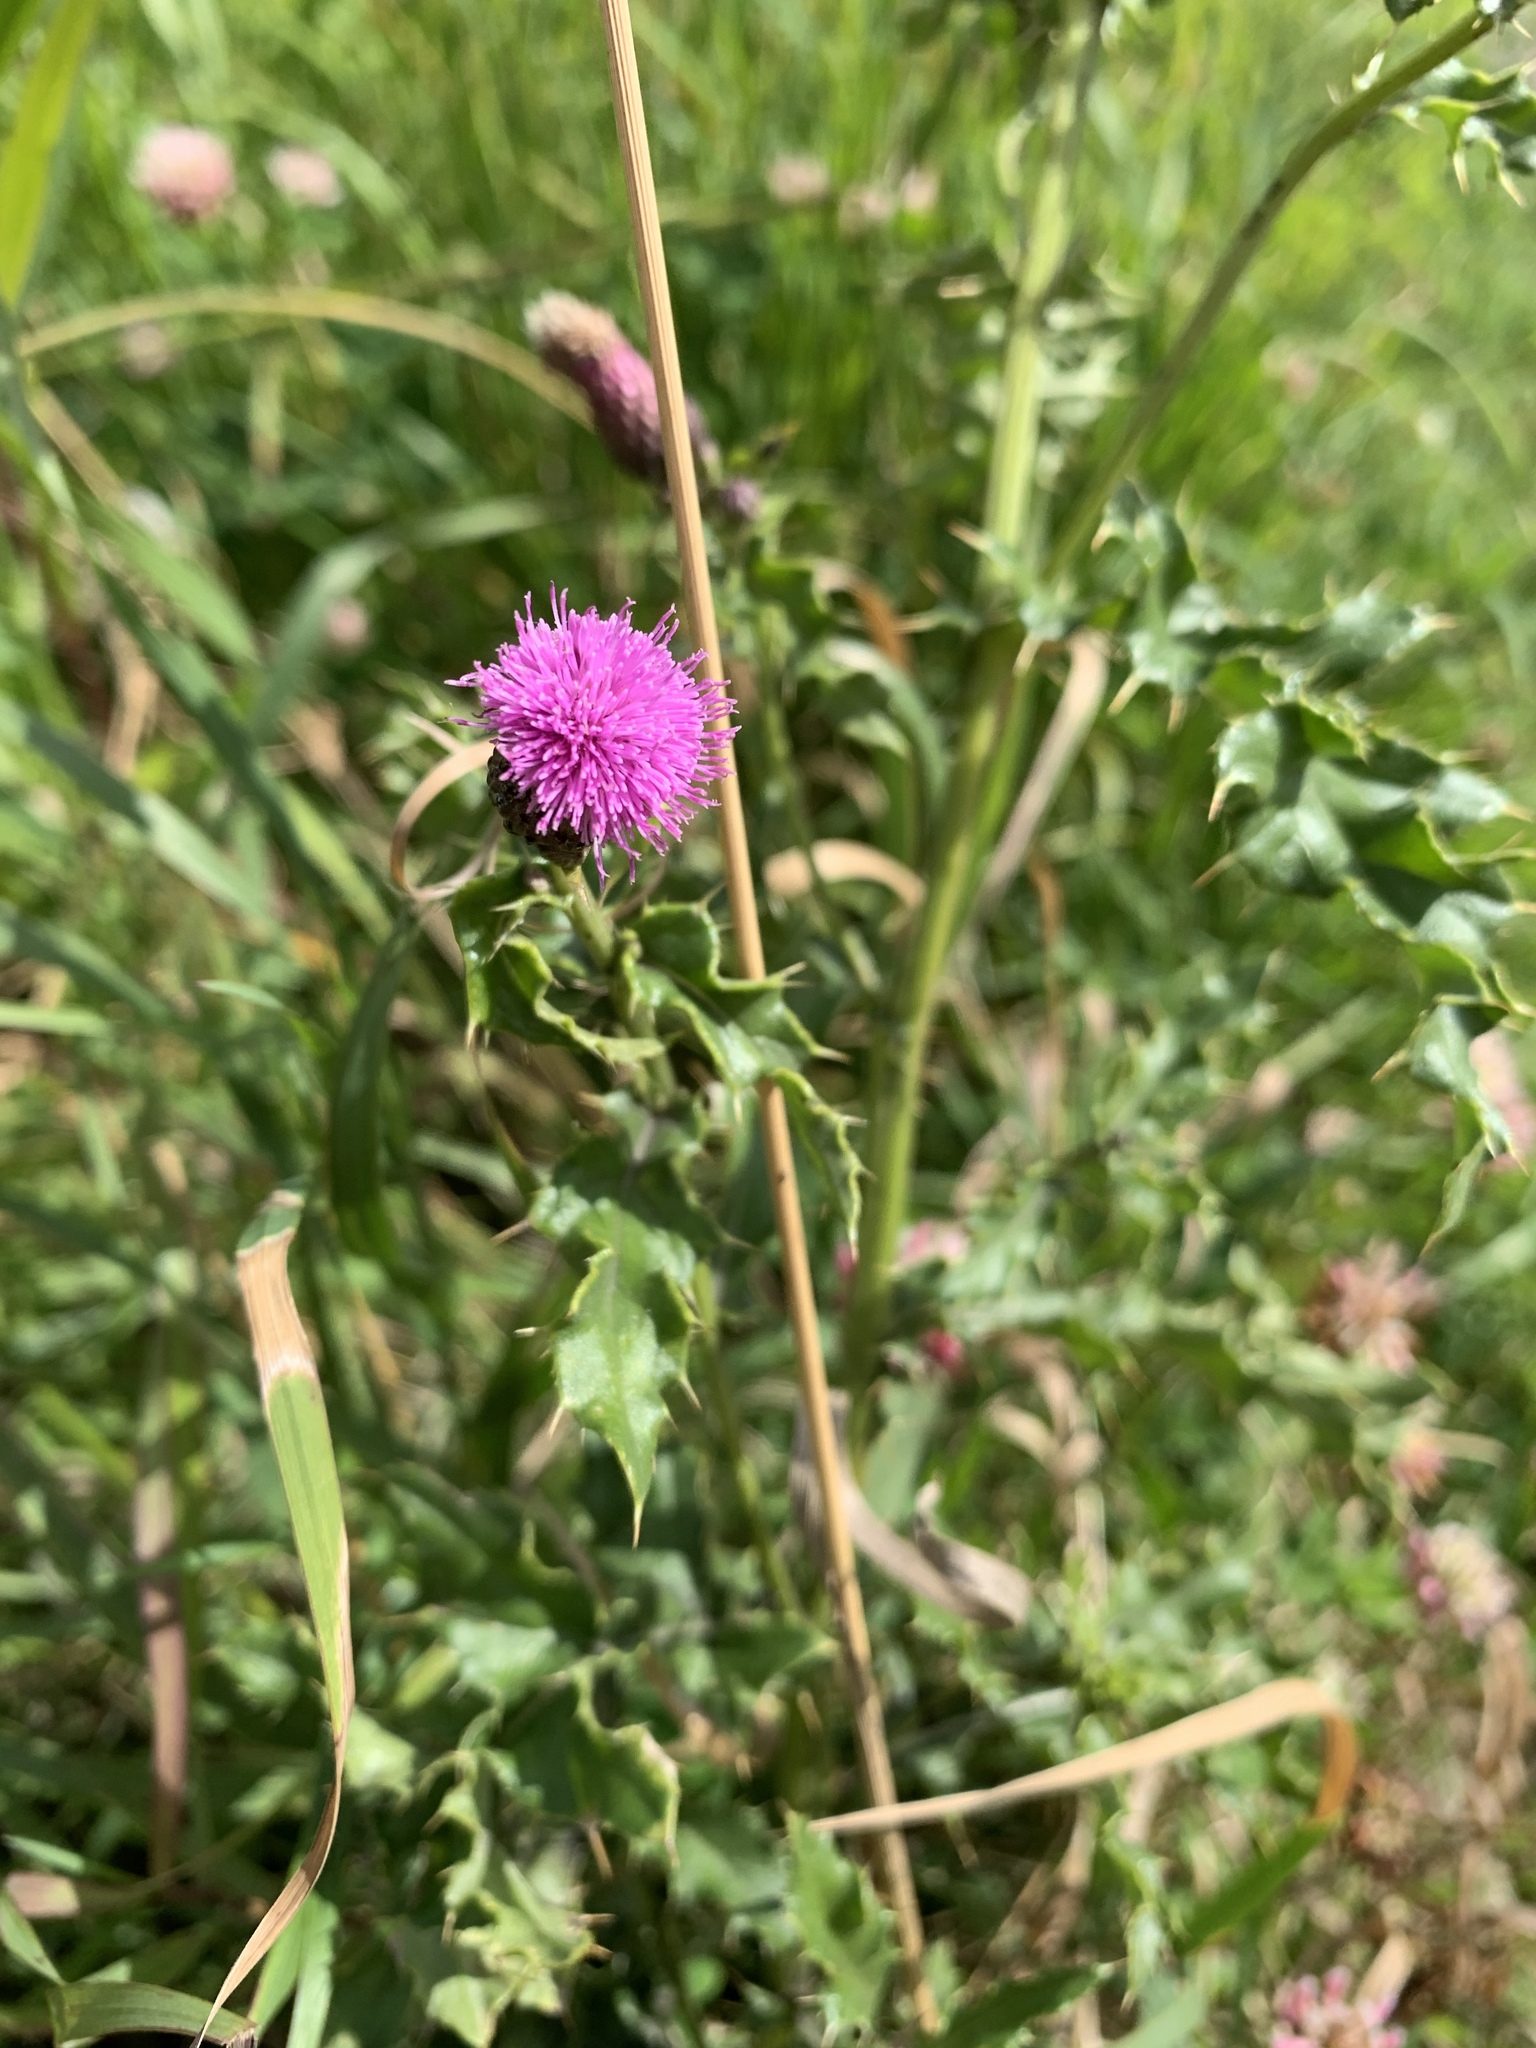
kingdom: Plantae
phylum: Tracheophyta
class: Magnoliopsida
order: Asterales
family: Asteraceae
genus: Cirsium
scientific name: Cirsium arvense
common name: Creeping thistle
